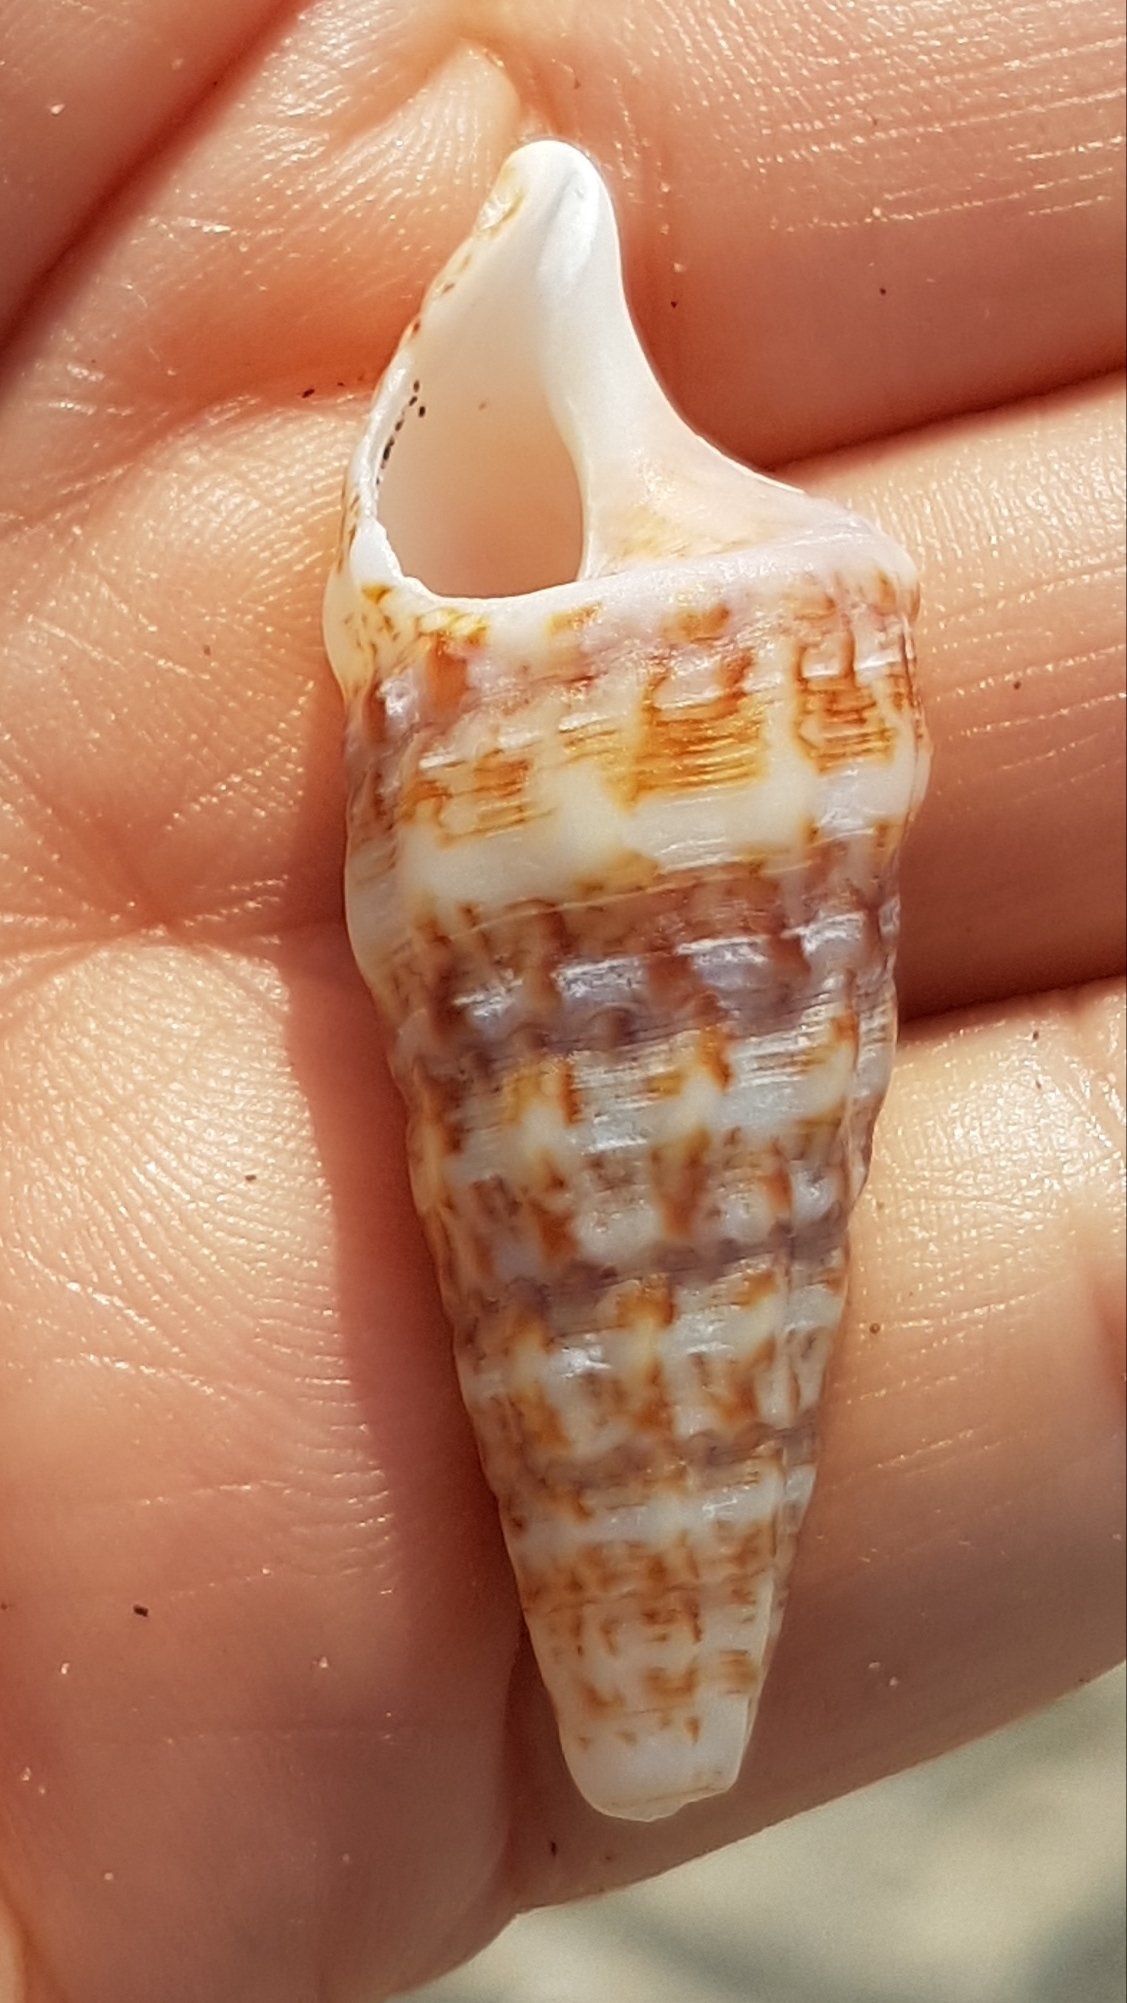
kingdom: Animalia
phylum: Mollusca
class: Gastropoda
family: Cerithiidae
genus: Cerithium
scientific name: Cerithium vulgatum
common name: European cerith
